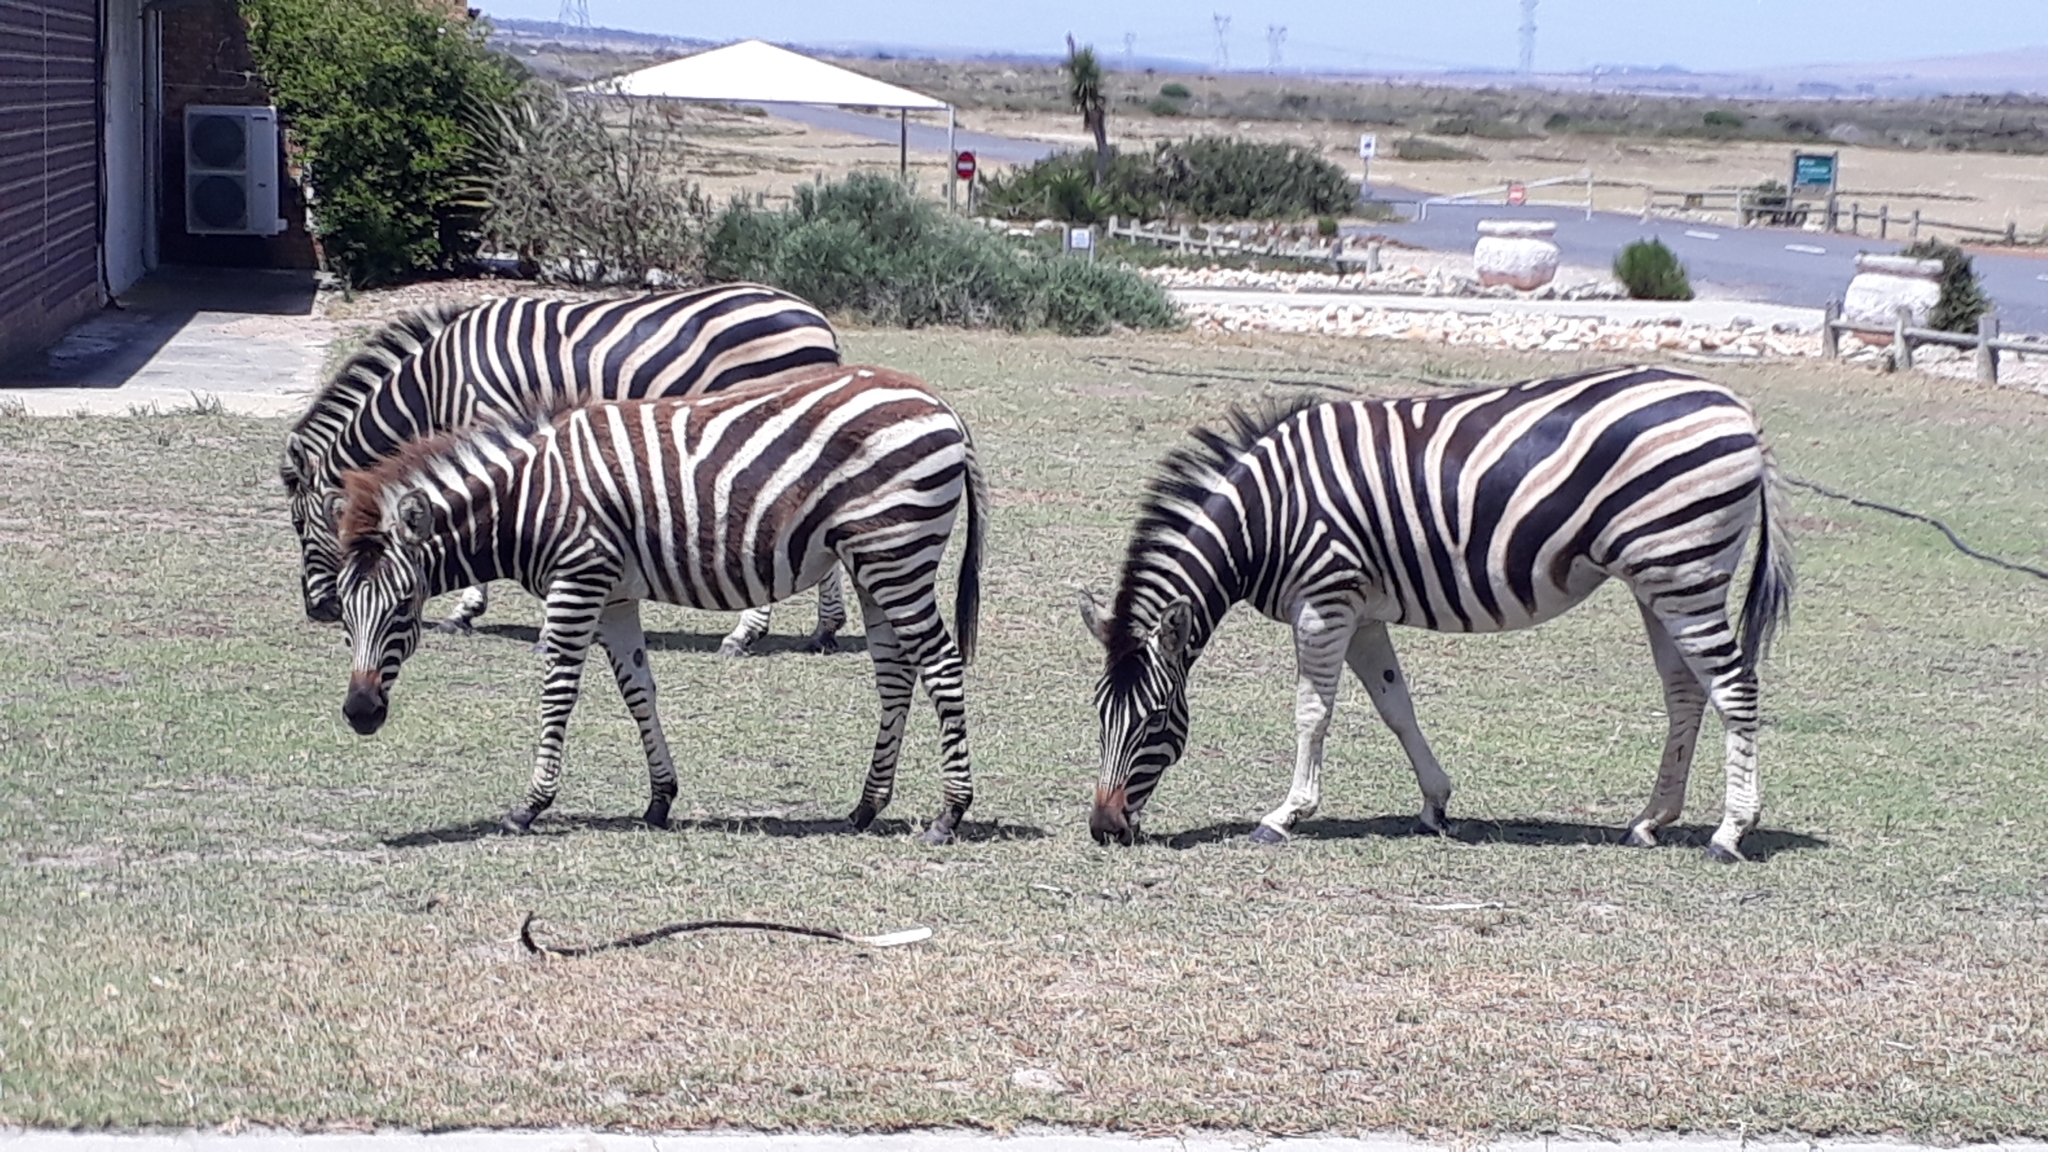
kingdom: Animalia
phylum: Chordata
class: Mammalia
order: Perissodactyla
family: Equidae
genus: Equus
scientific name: Equus quagga
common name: Plains zebra
